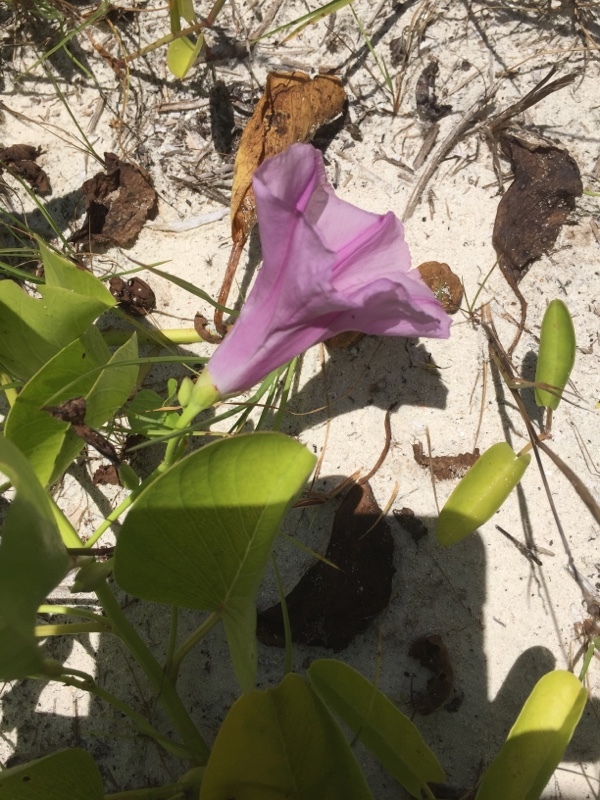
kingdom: Plantae
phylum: Tracheophyta
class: Magnoliopsida
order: Solanales
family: Convolvulaceae
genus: Ipomoea
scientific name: Ipomoea pes-caprae
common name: Beach morning glory
